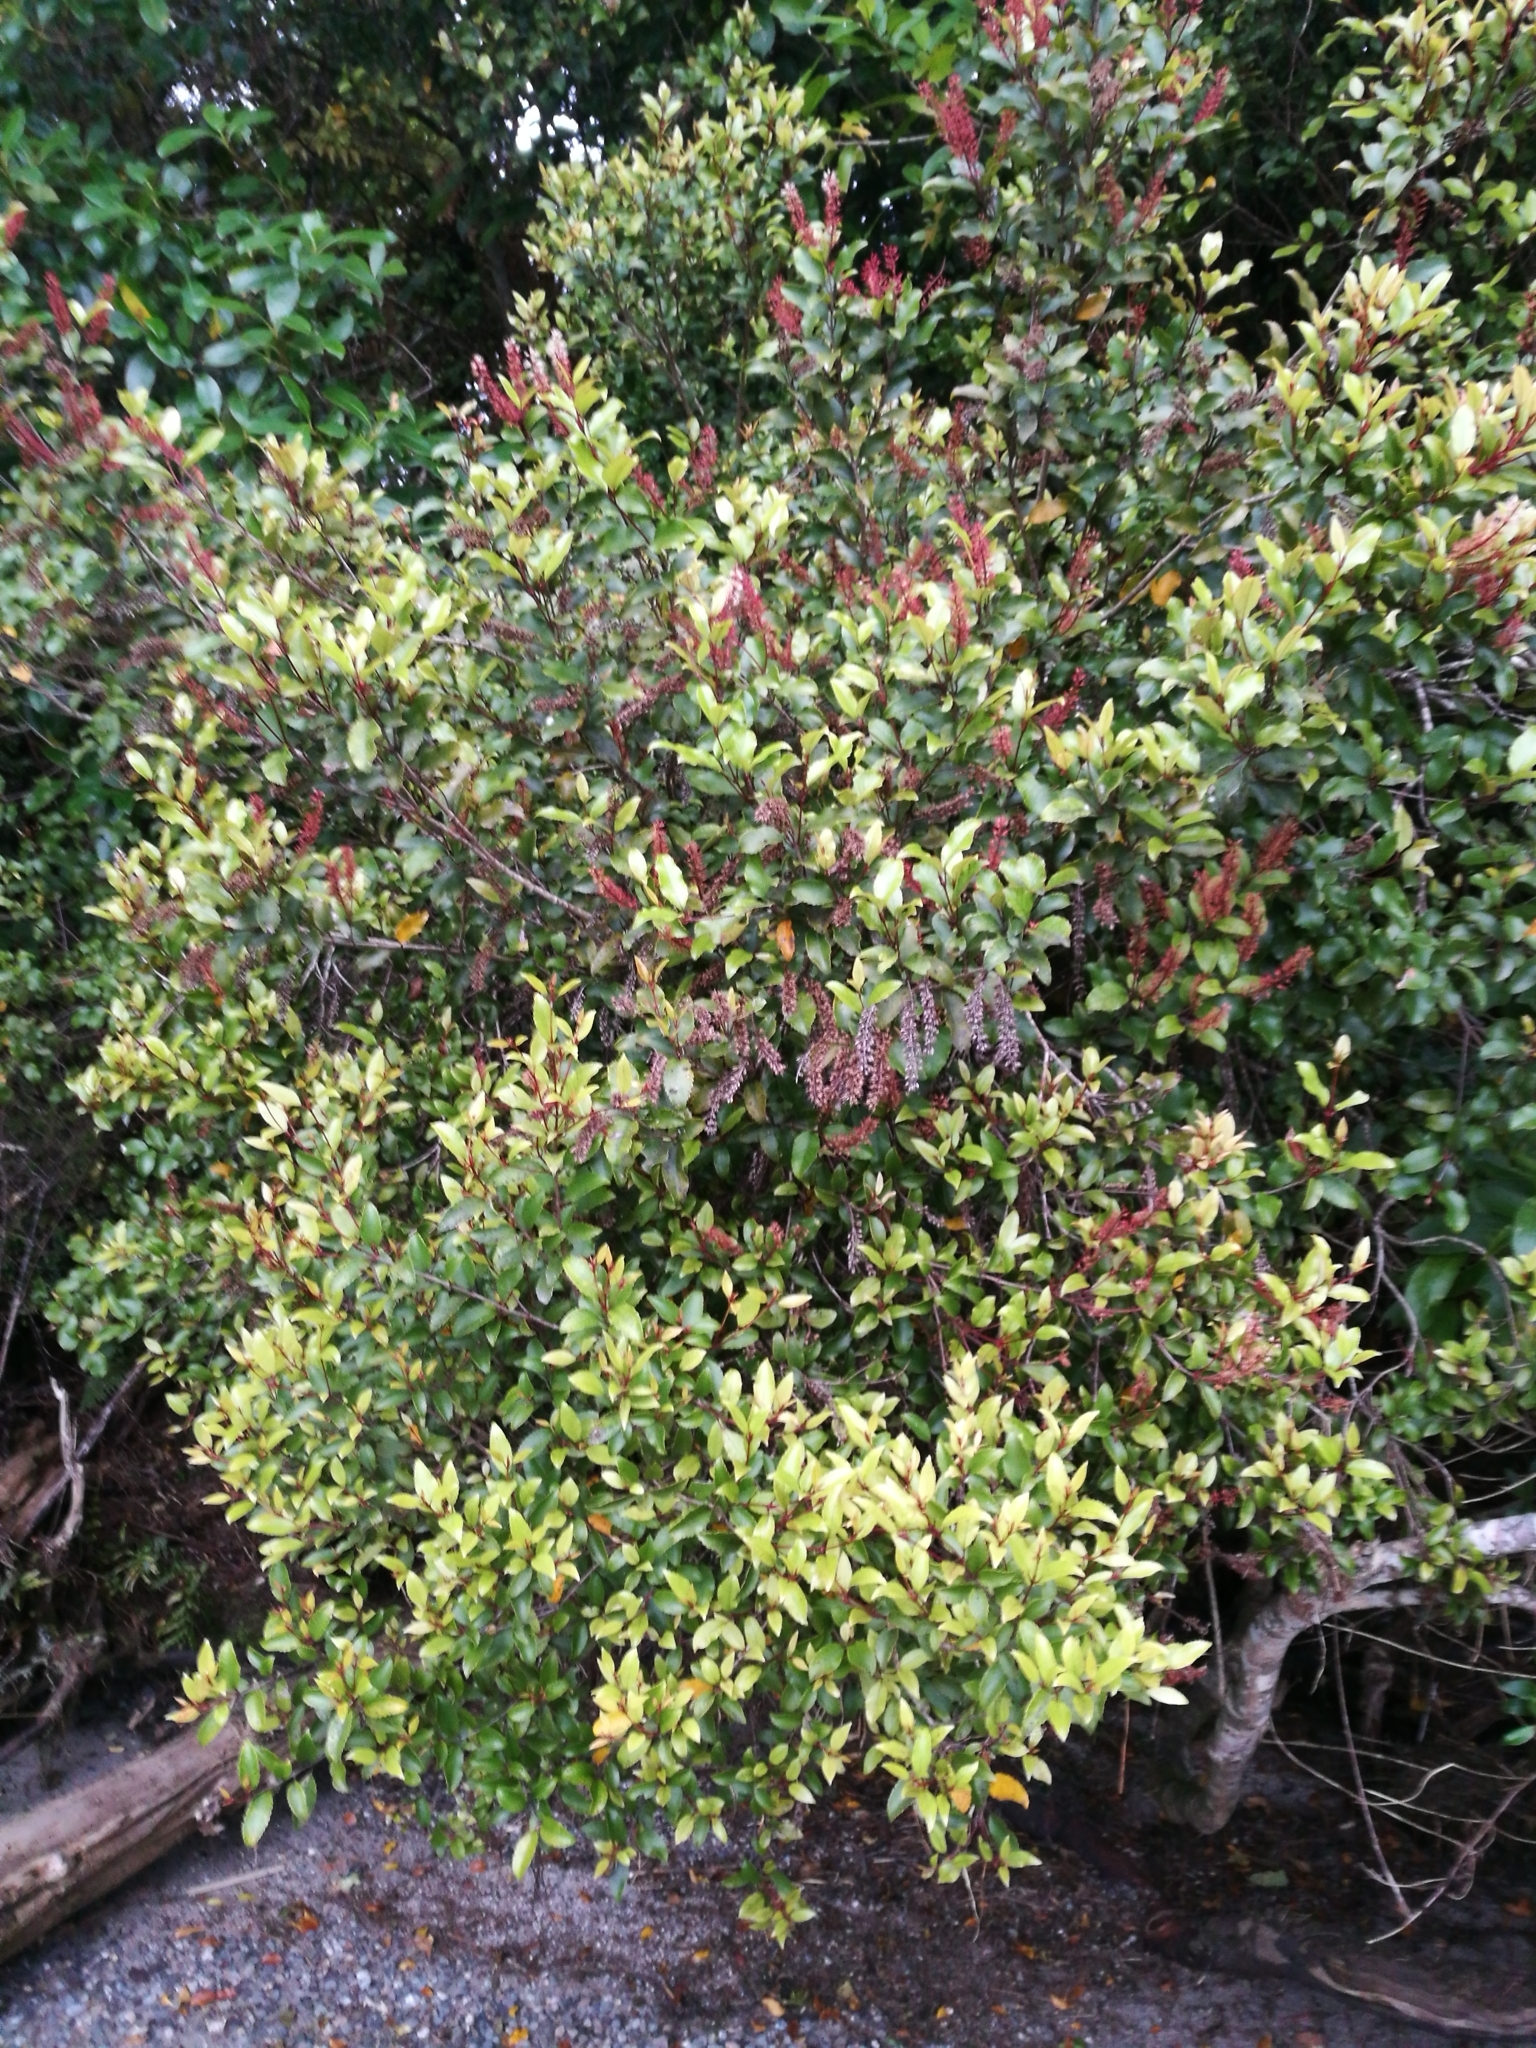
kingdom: Plantae
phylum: Tracheophyta
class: Magnoliopsida
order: Oxalidales
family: Cunoniaceae
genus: Pterophylla
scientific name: Pterophylla racemosa
